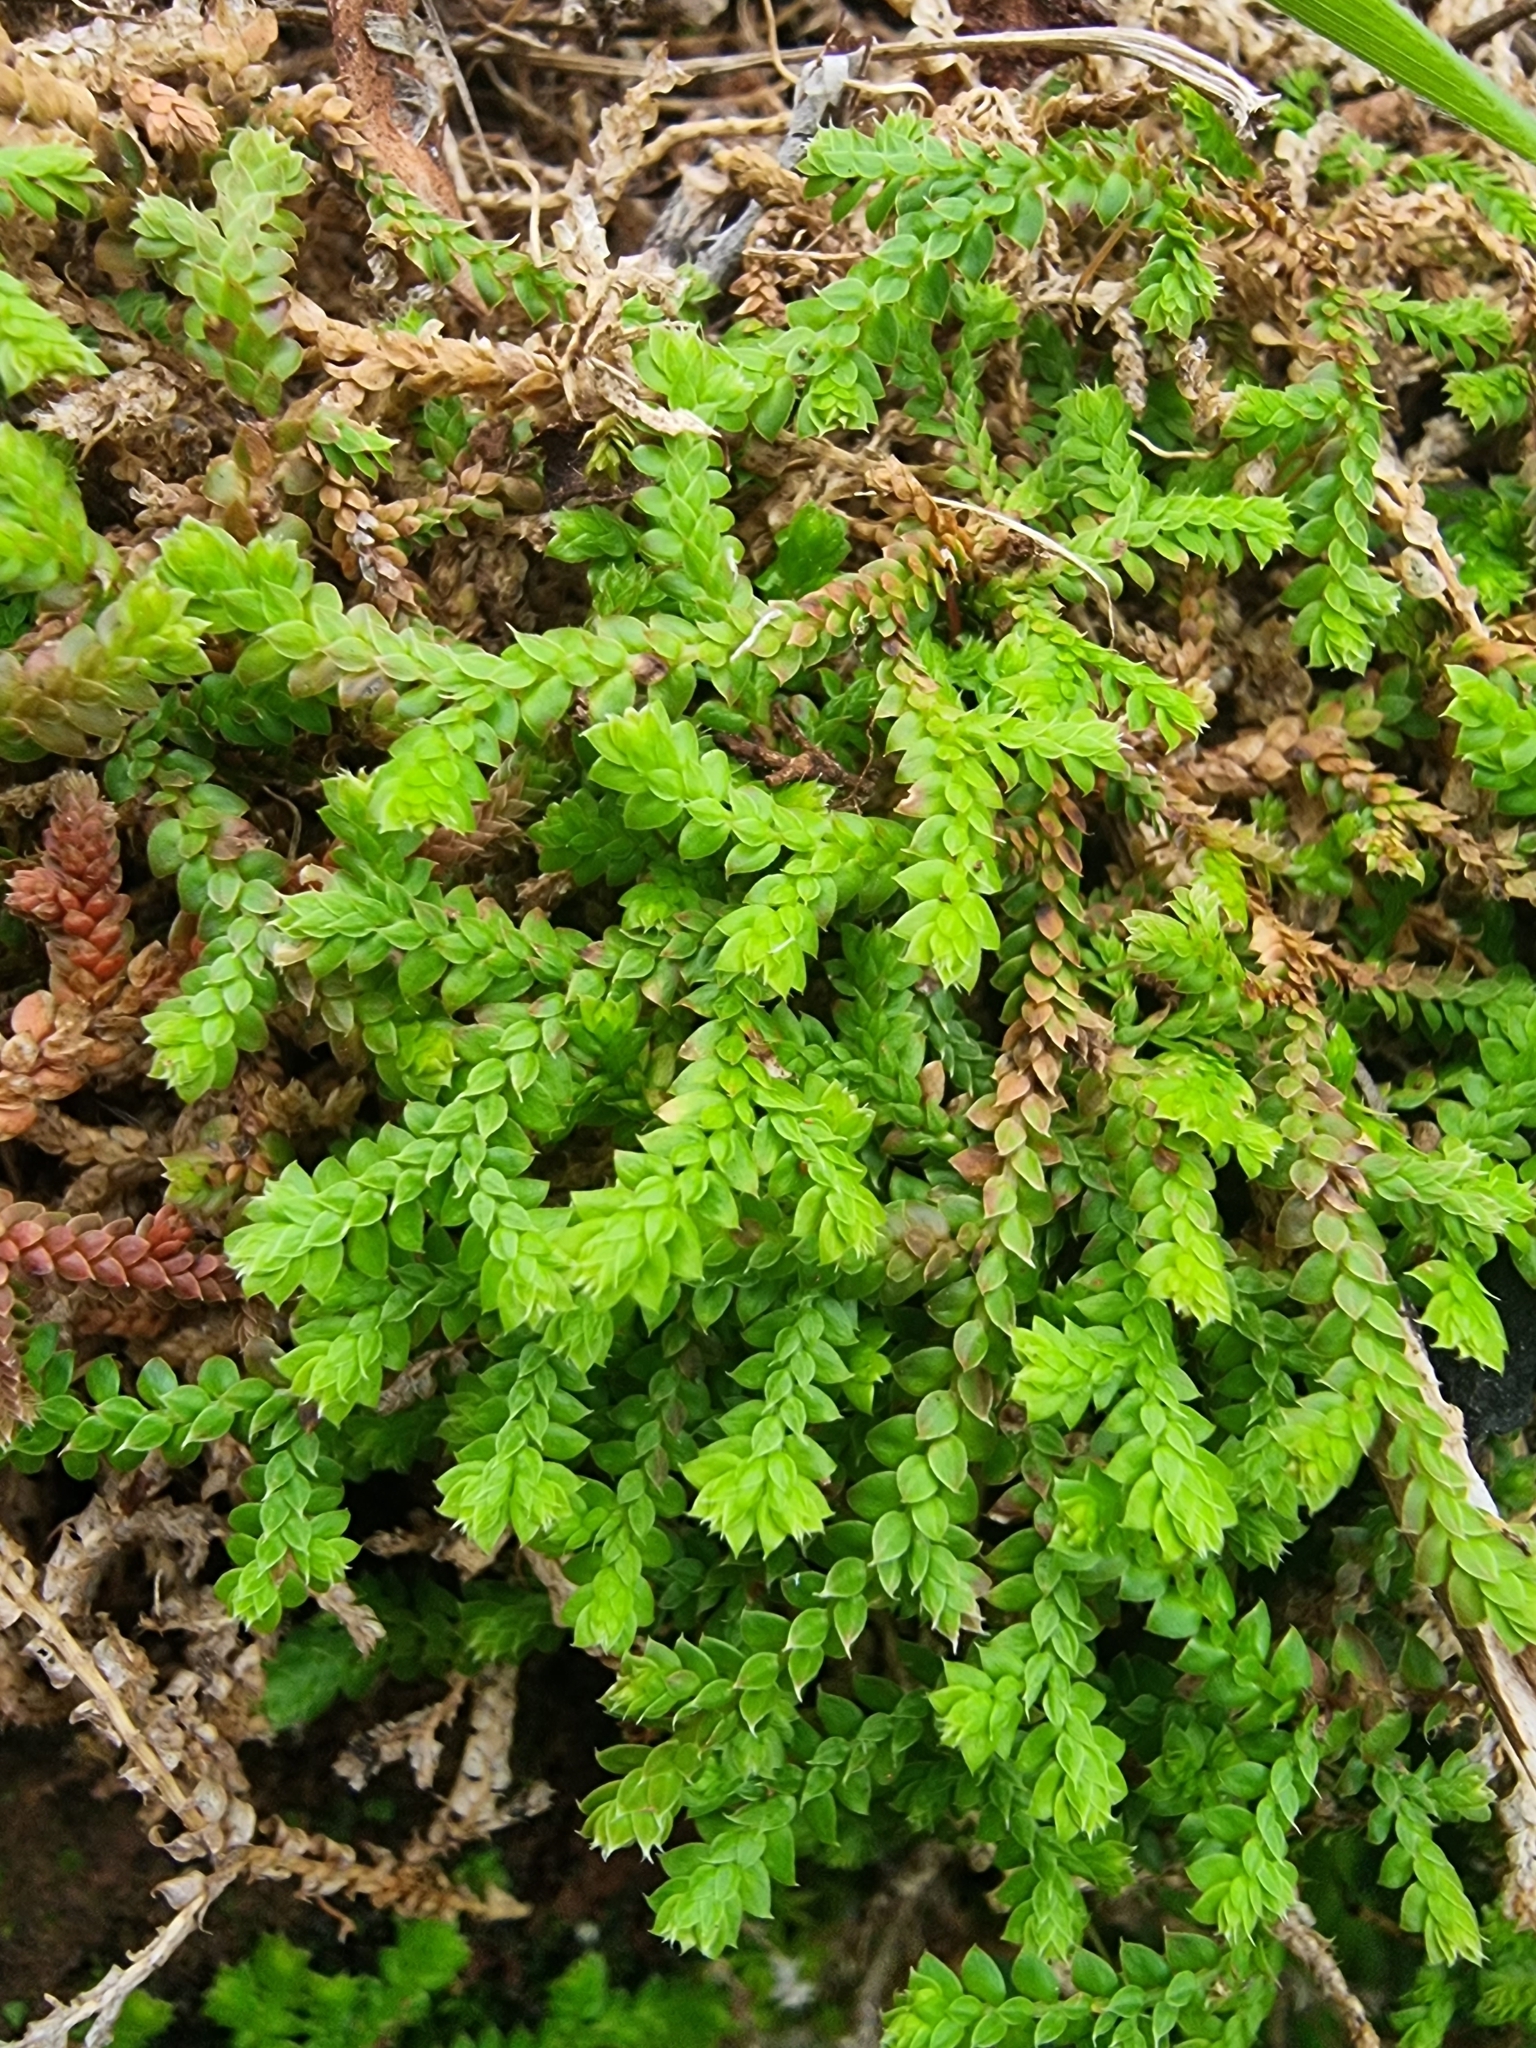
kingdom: Plantae
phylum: Tracheophyta
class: Lycopodiopsida
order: Selaginellales
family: Selaginellaceae
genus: Selaginella
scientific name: Selaginella denticulata
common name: Toothed-leaved clubmoss
